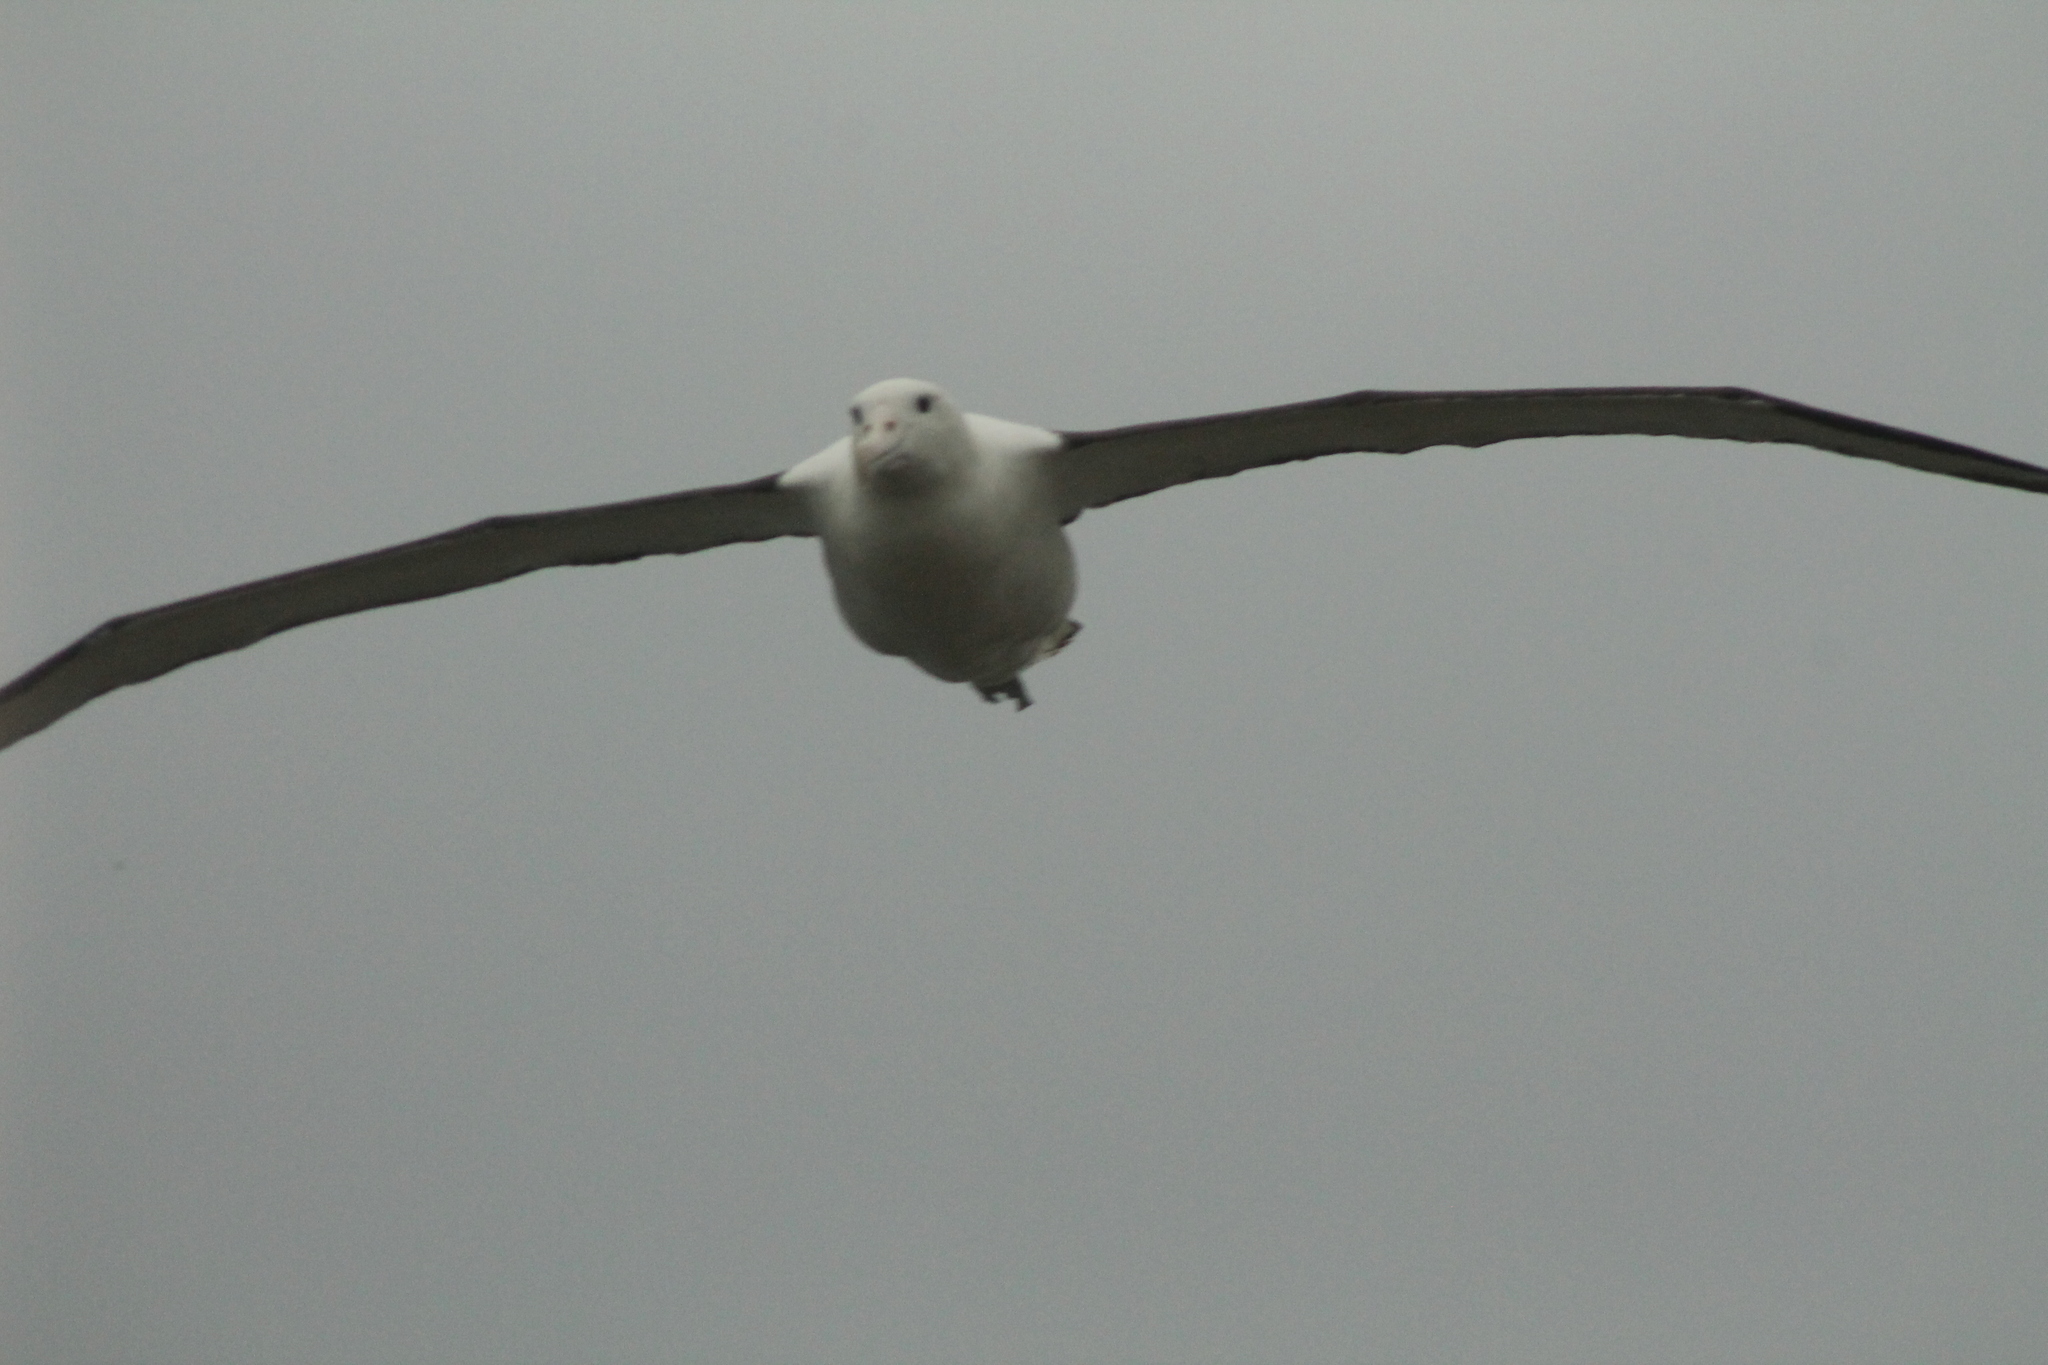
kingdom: Animalia
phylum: Chordata
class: Aves
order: Procellariiformes
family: Diomedeidae
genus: Diomedea
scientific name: Diomedea sanfordi
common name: Northern royal albatross
